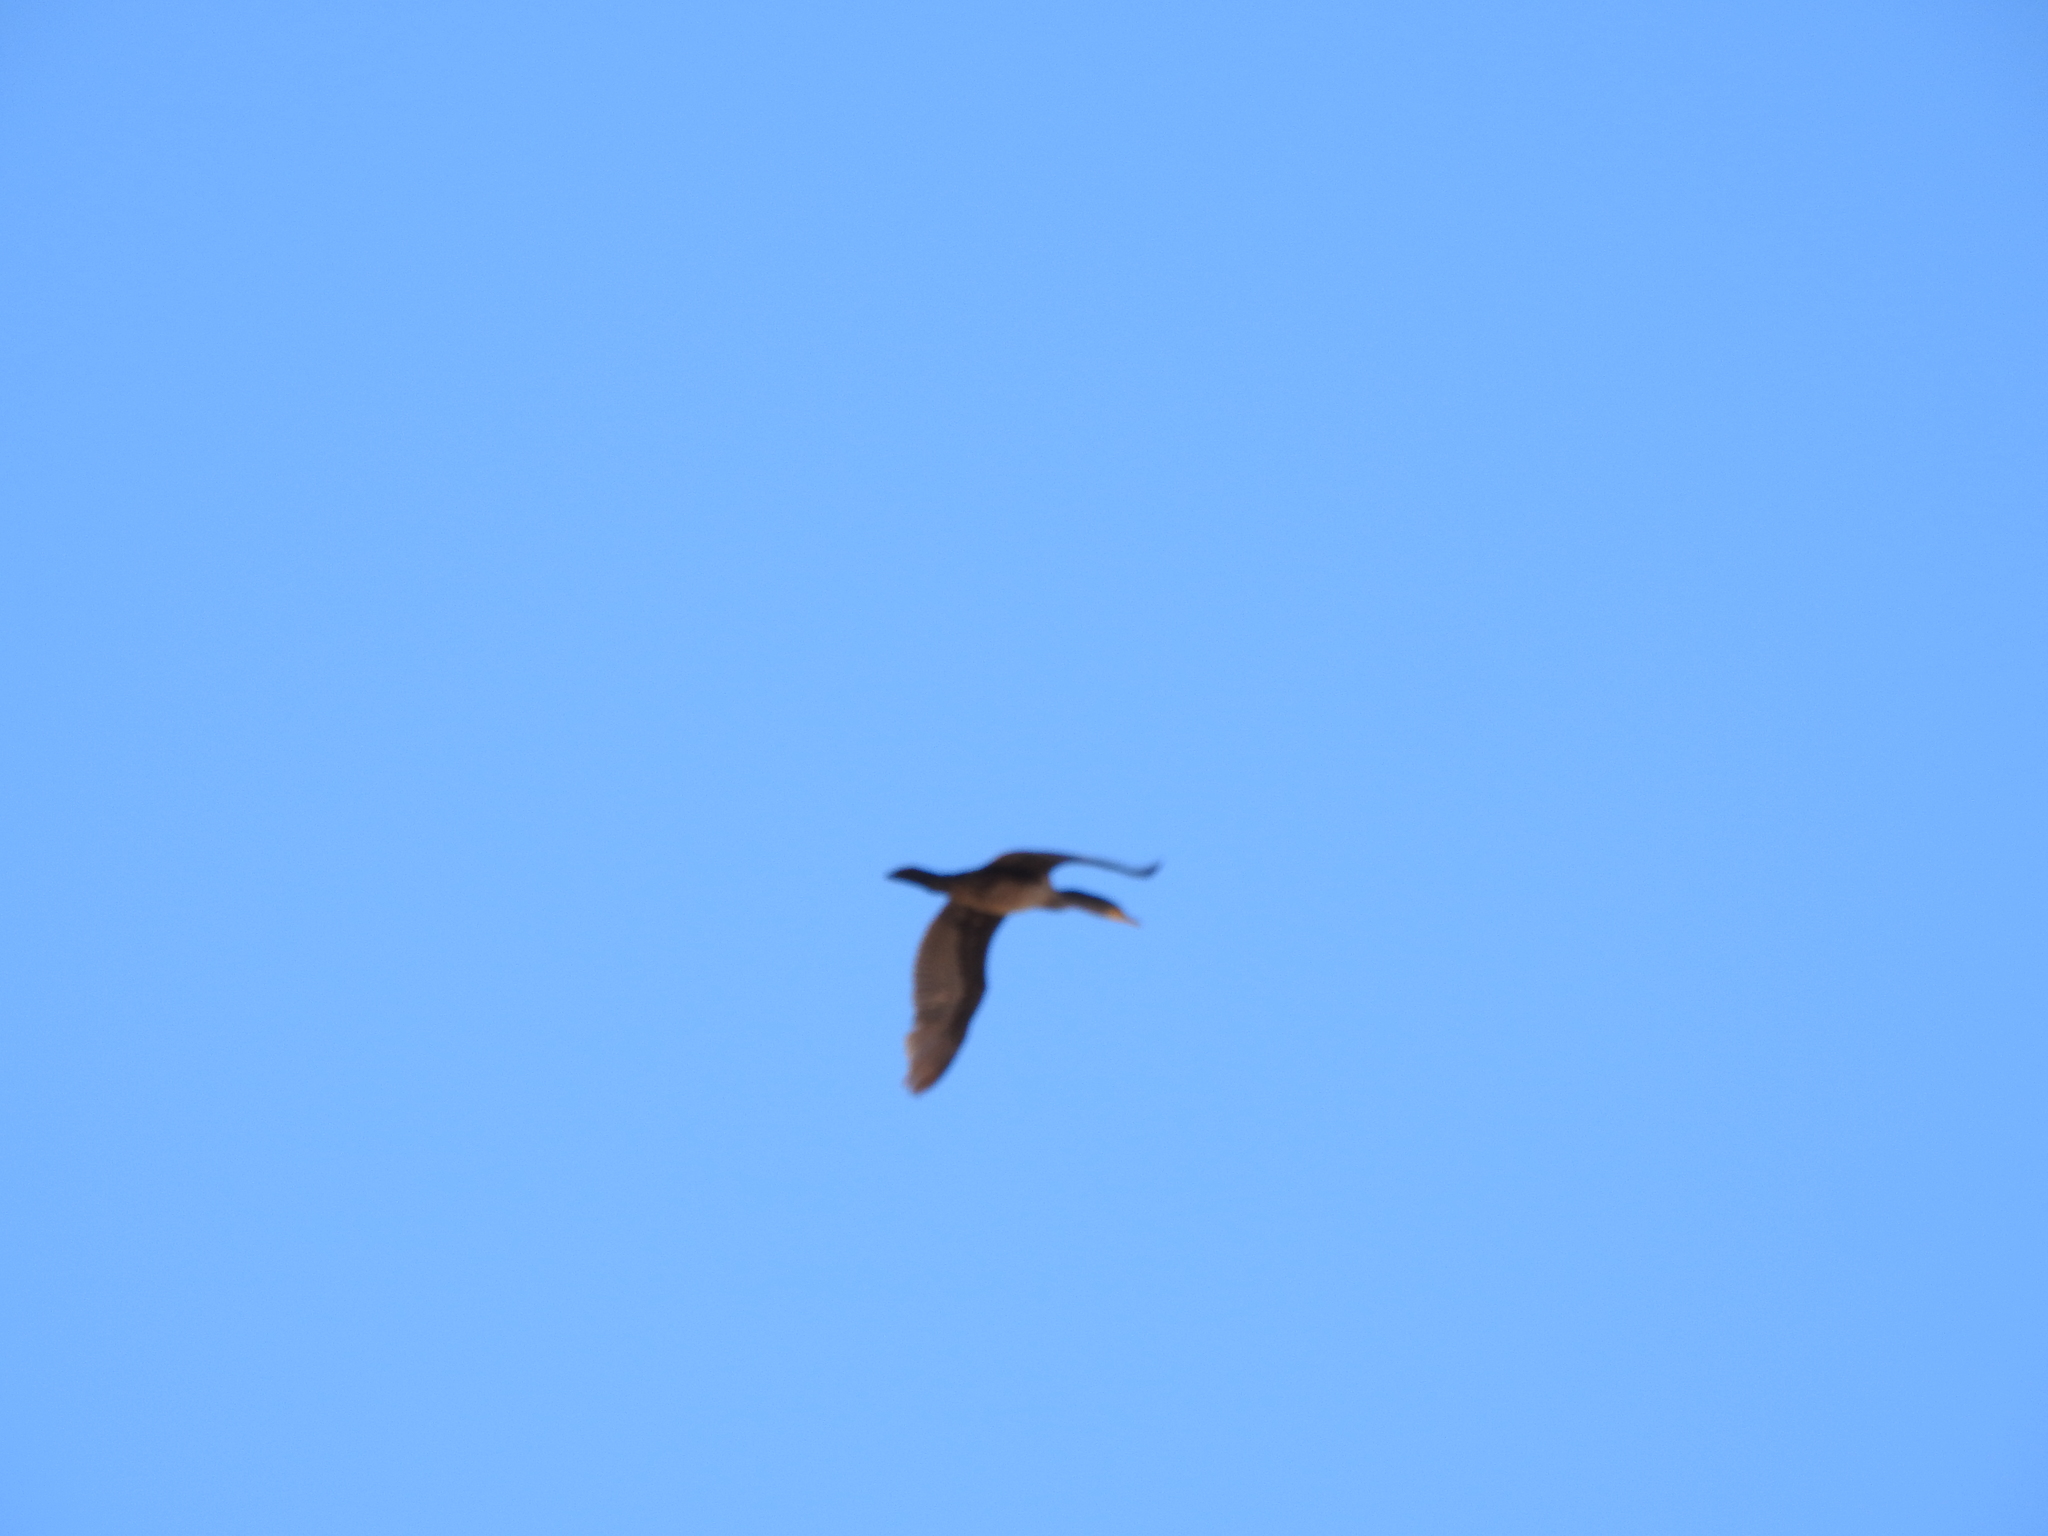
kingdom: Animalia
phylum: Chordata
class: Aves
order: Suliformes
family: Phalacrocoracidae
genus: Phalacrocorax
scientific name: Phalacrocorax auritus
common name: Double-crested cormorant
